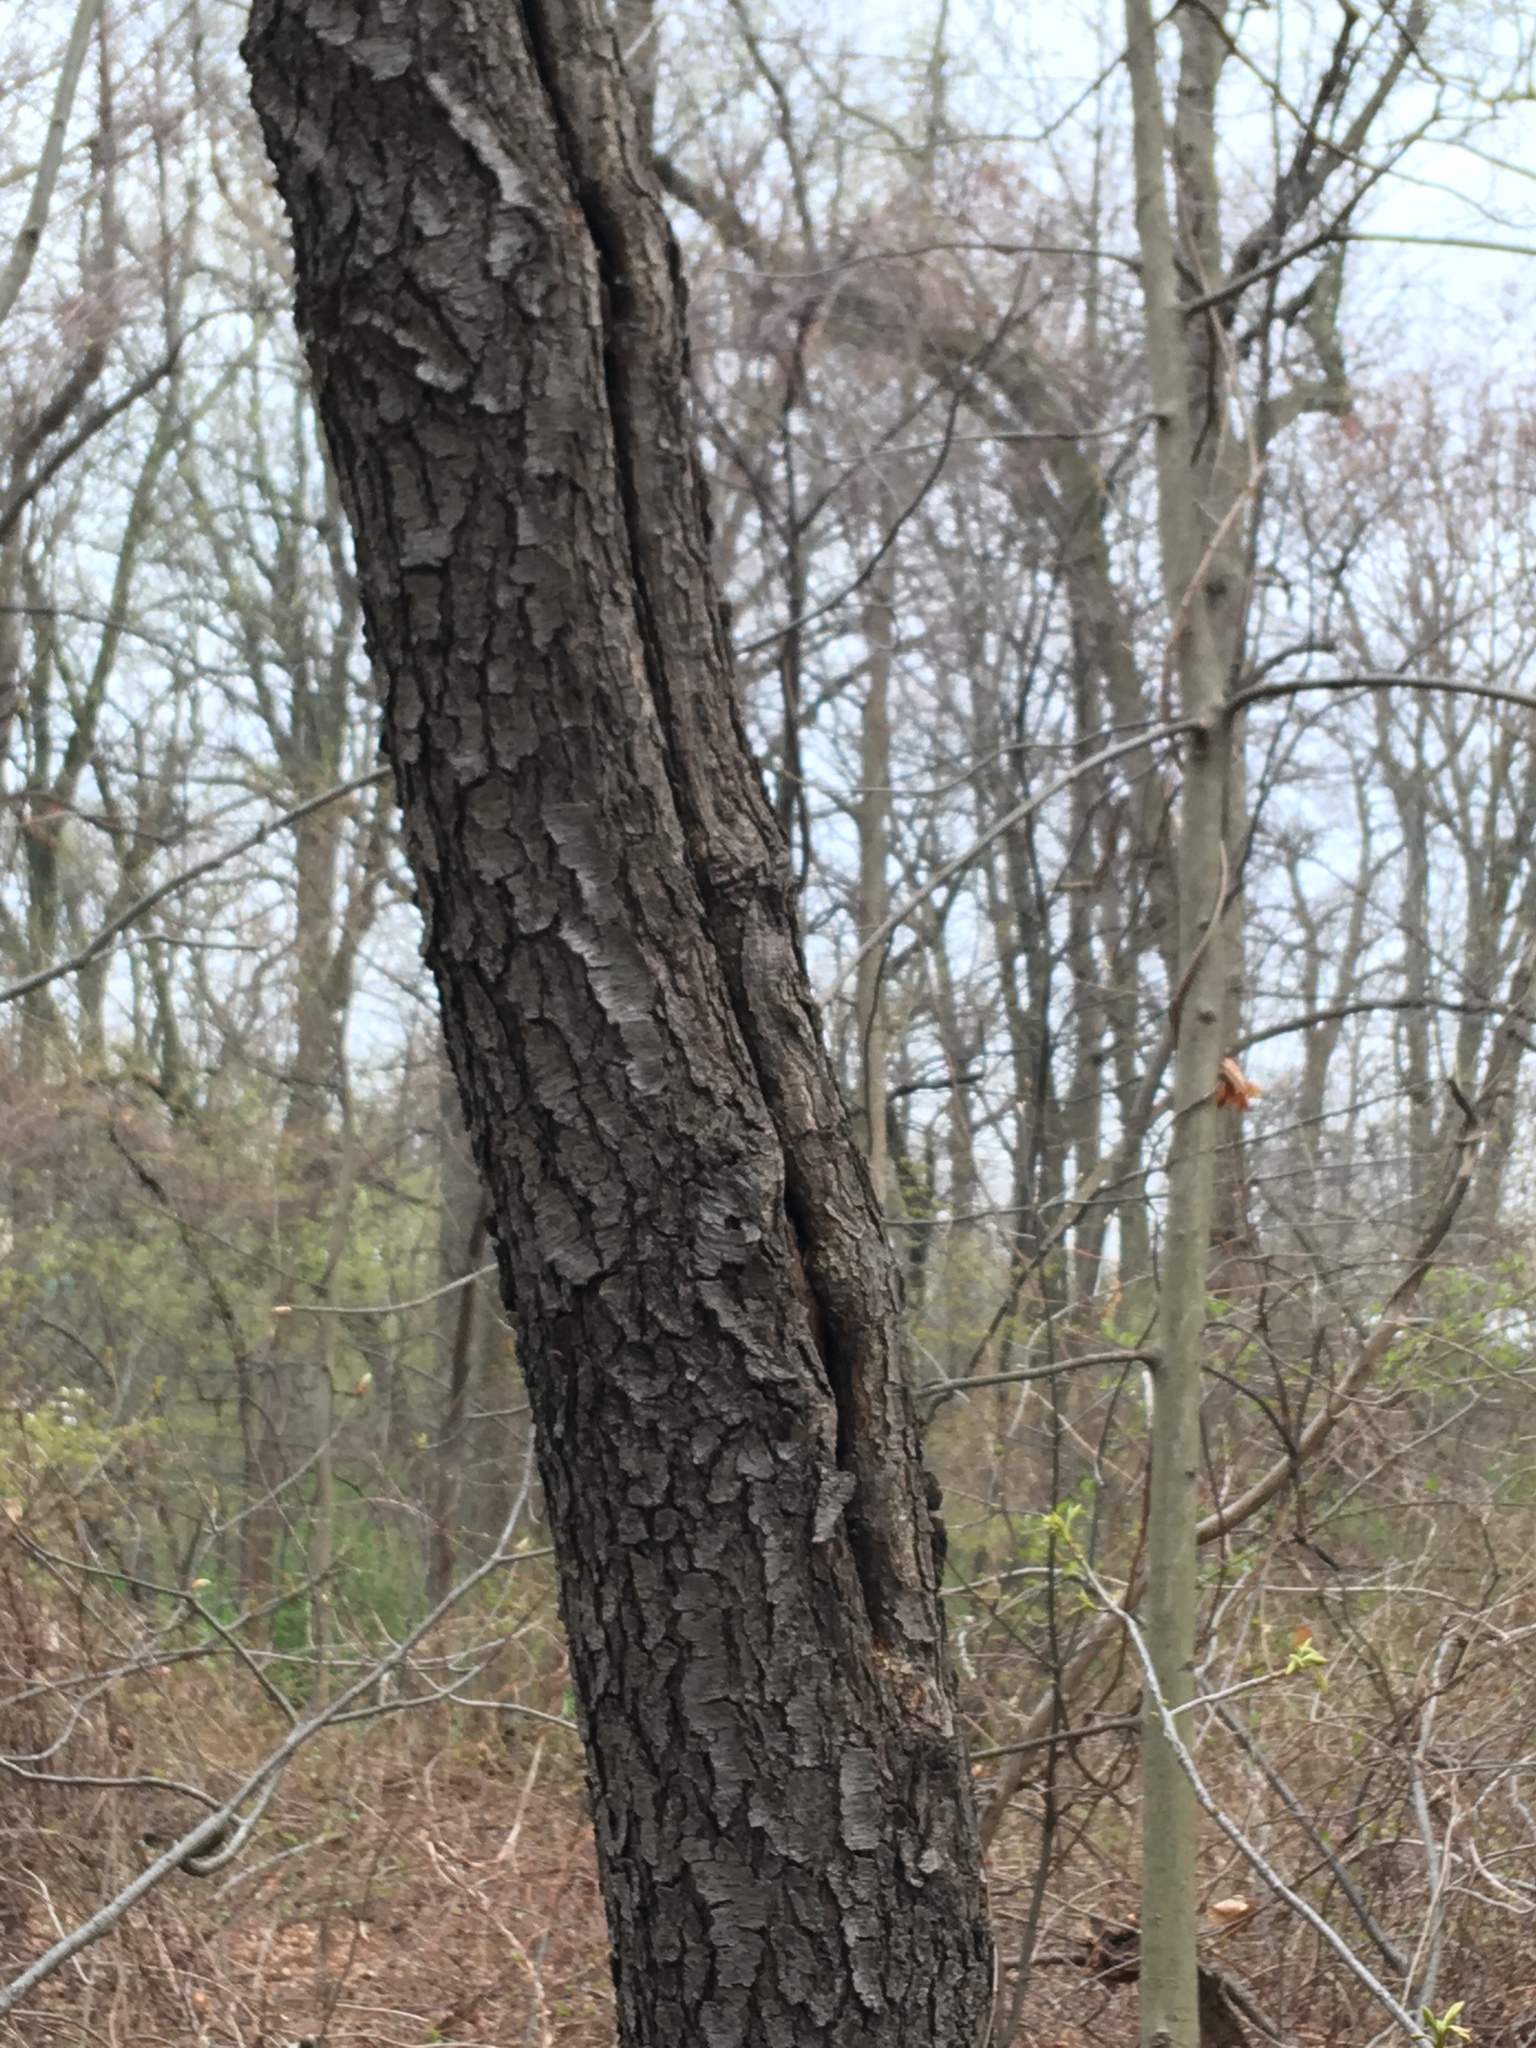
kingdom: Plantae
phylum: Tracheophyta
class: Magnoliopsida
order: Rosales
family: Rosaceae
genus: Prunus
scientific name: Prunus serotina
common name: Black cherry
